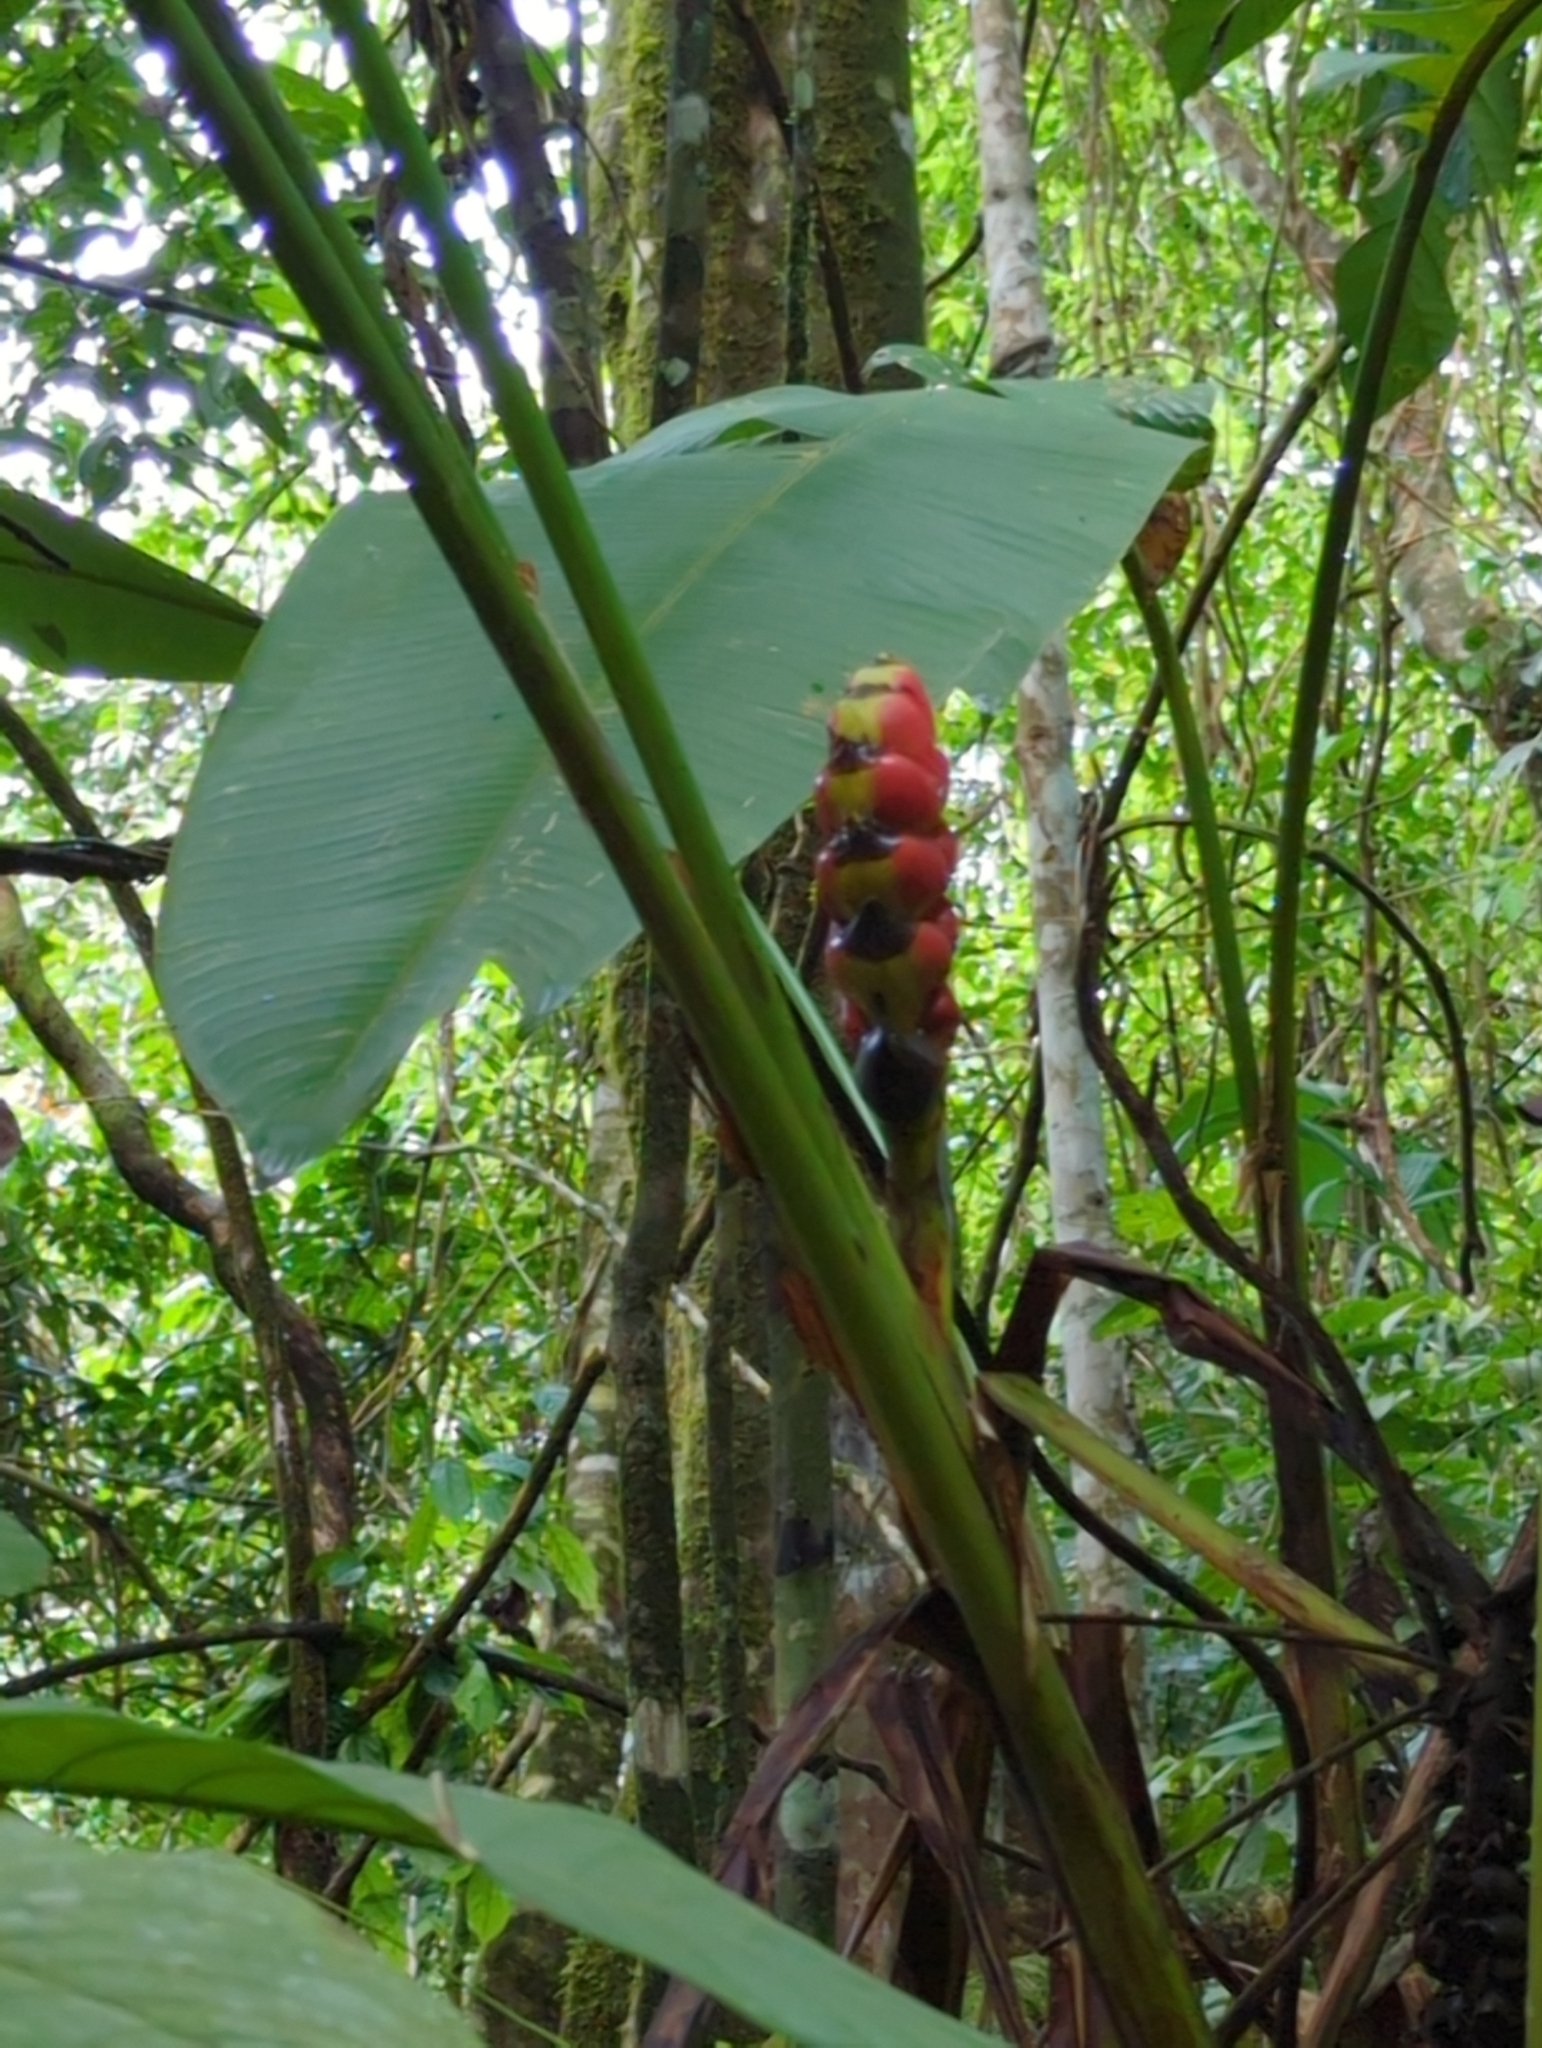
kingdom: Plantae
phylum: Tracheophyta
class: Liliopsida
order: Zingiberales
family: Heliconiaceae
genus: Heliconia
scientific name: Heliconia imbricata
